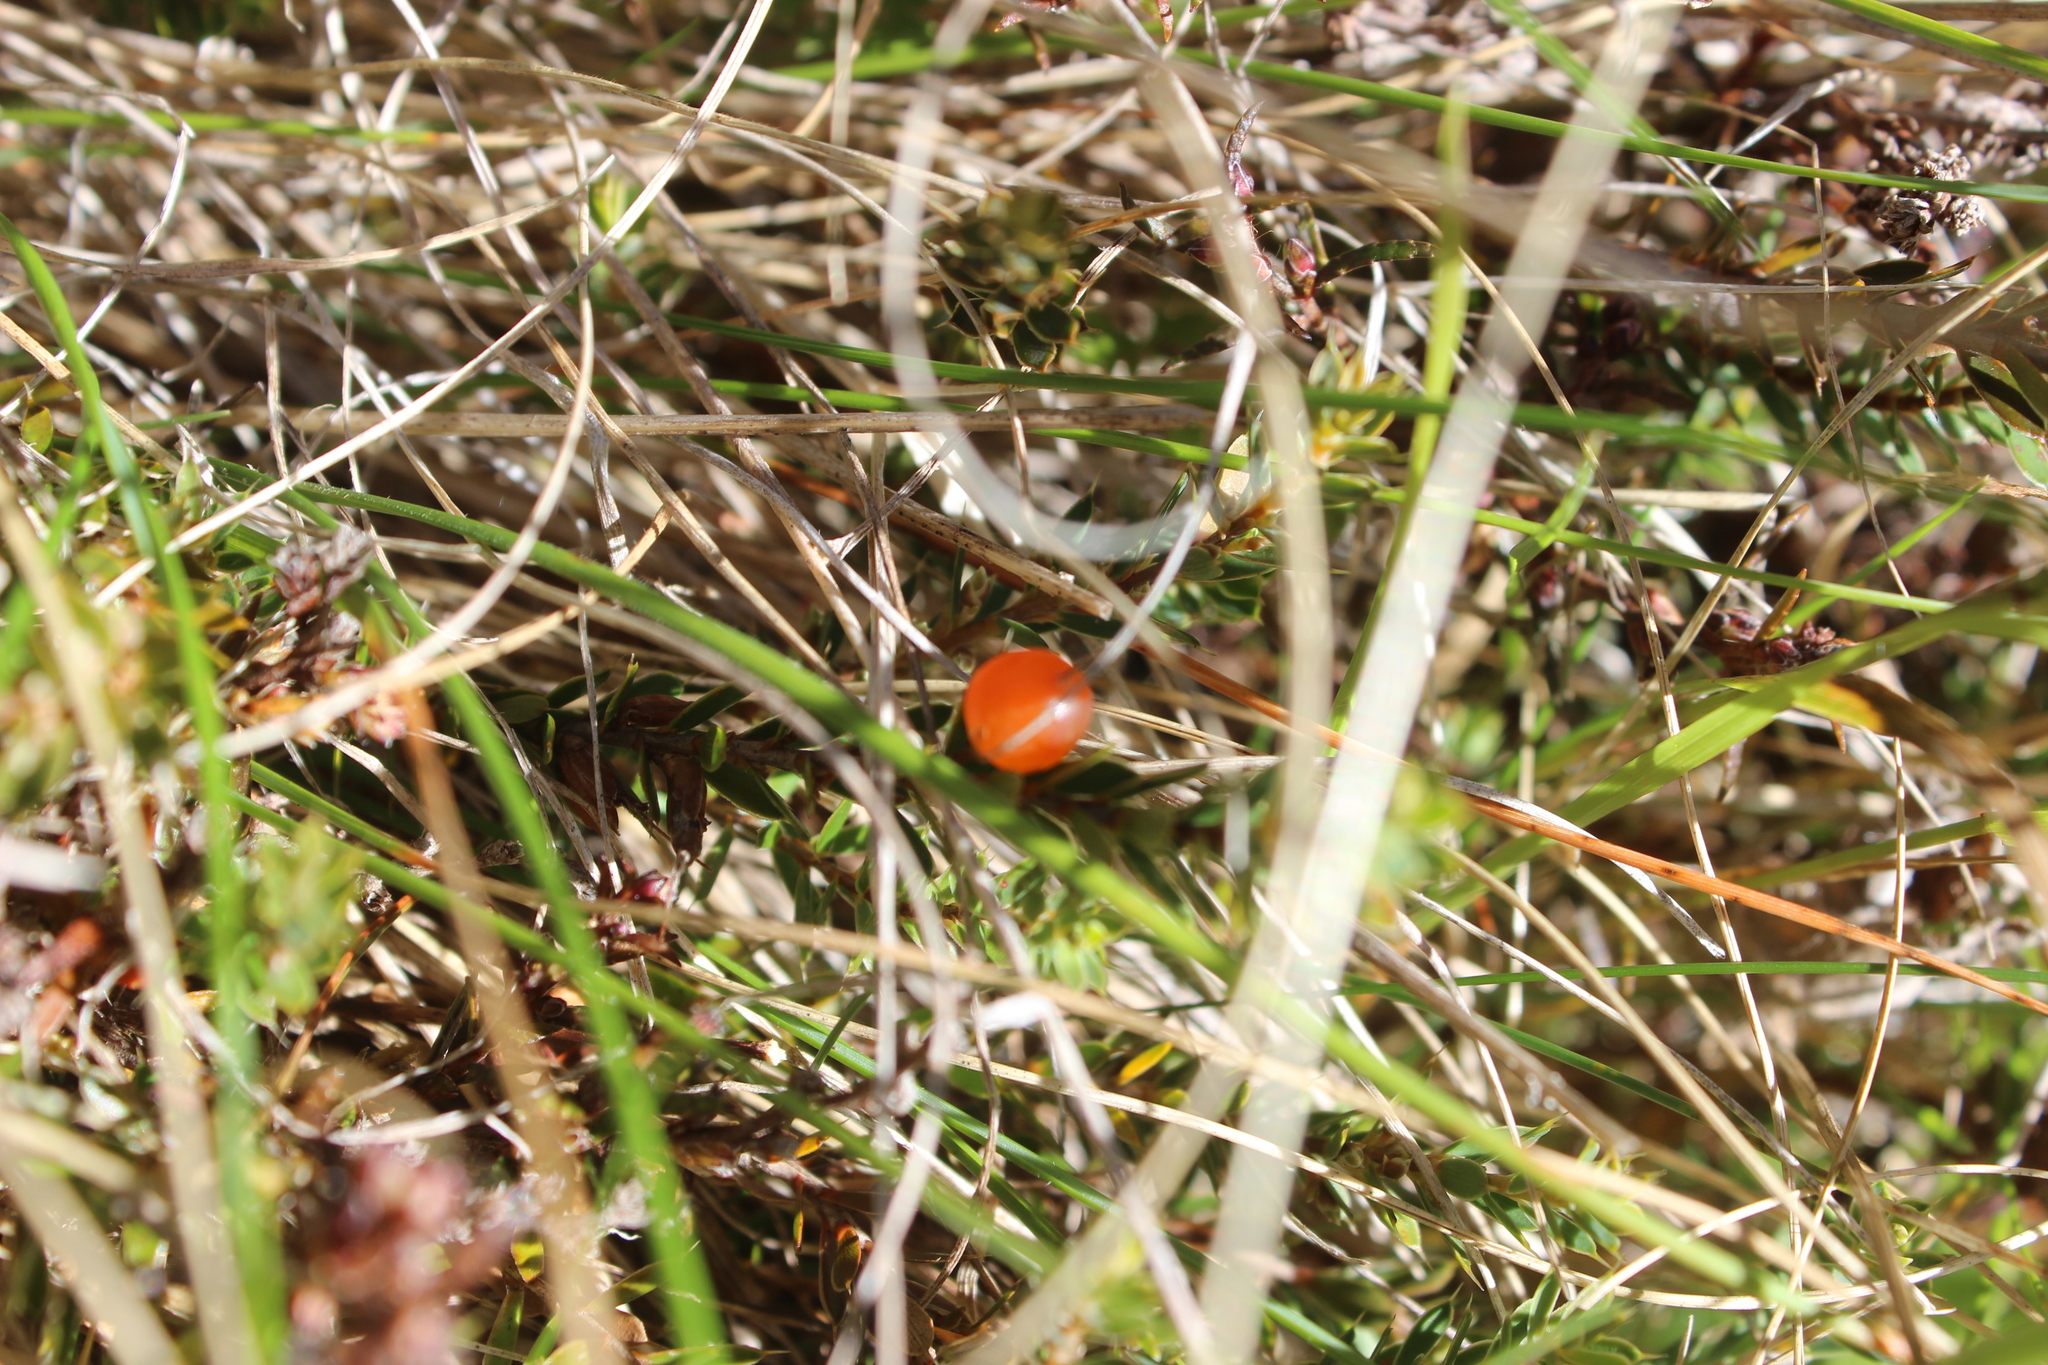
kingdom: Plantae
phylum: Tracheophyta
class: Magnoliopsida
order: Ericales
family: Ericaceae
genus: Styphelia
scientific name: Styphelia nesophila
